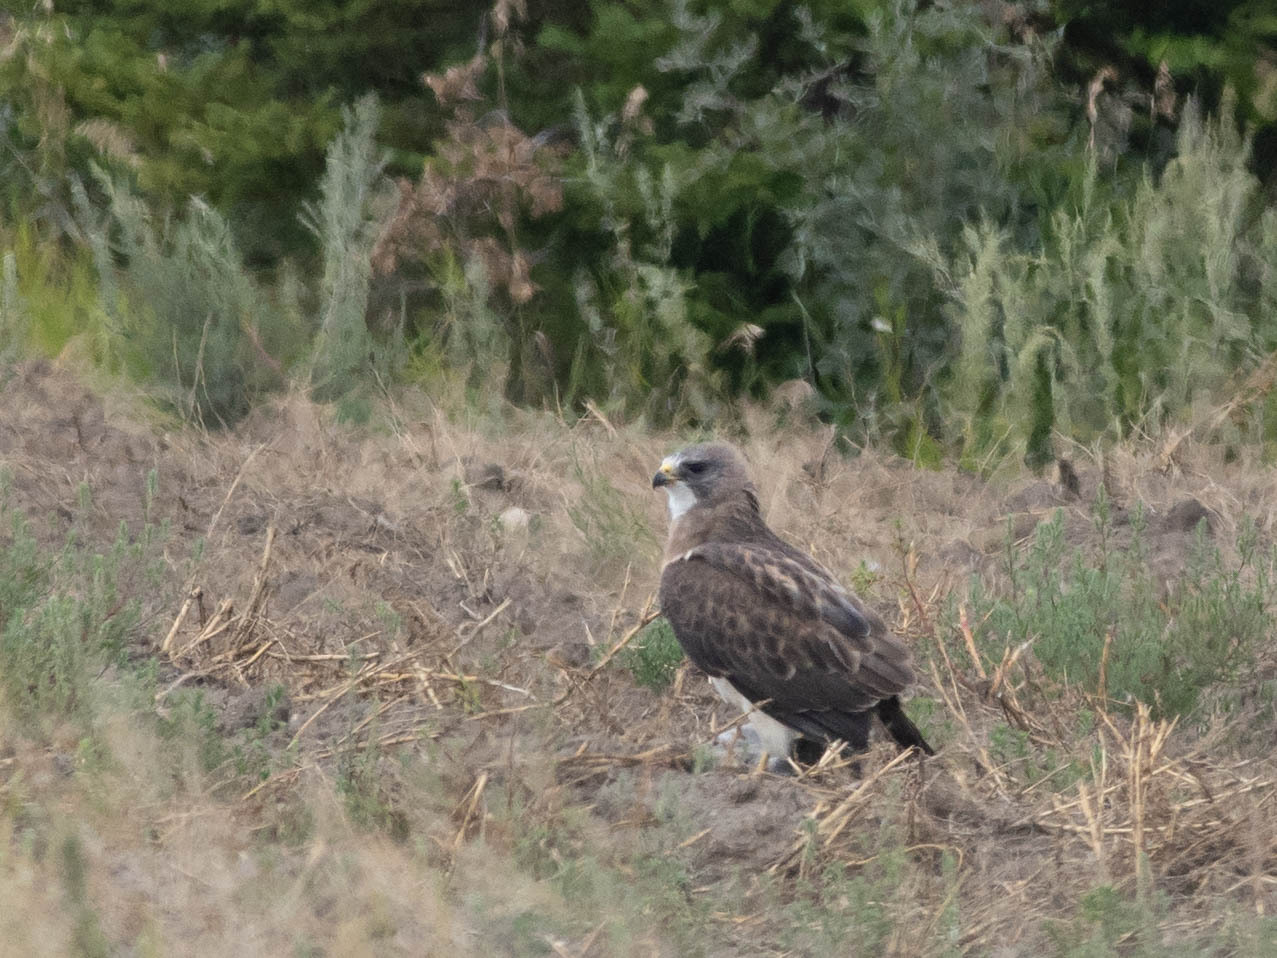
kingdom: Animalia
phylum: Chordata
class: Aves
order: Accipitriformes
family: Accipitridae
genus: Buteo
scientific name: Buteo swainsoni
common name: Swainson's hawk
